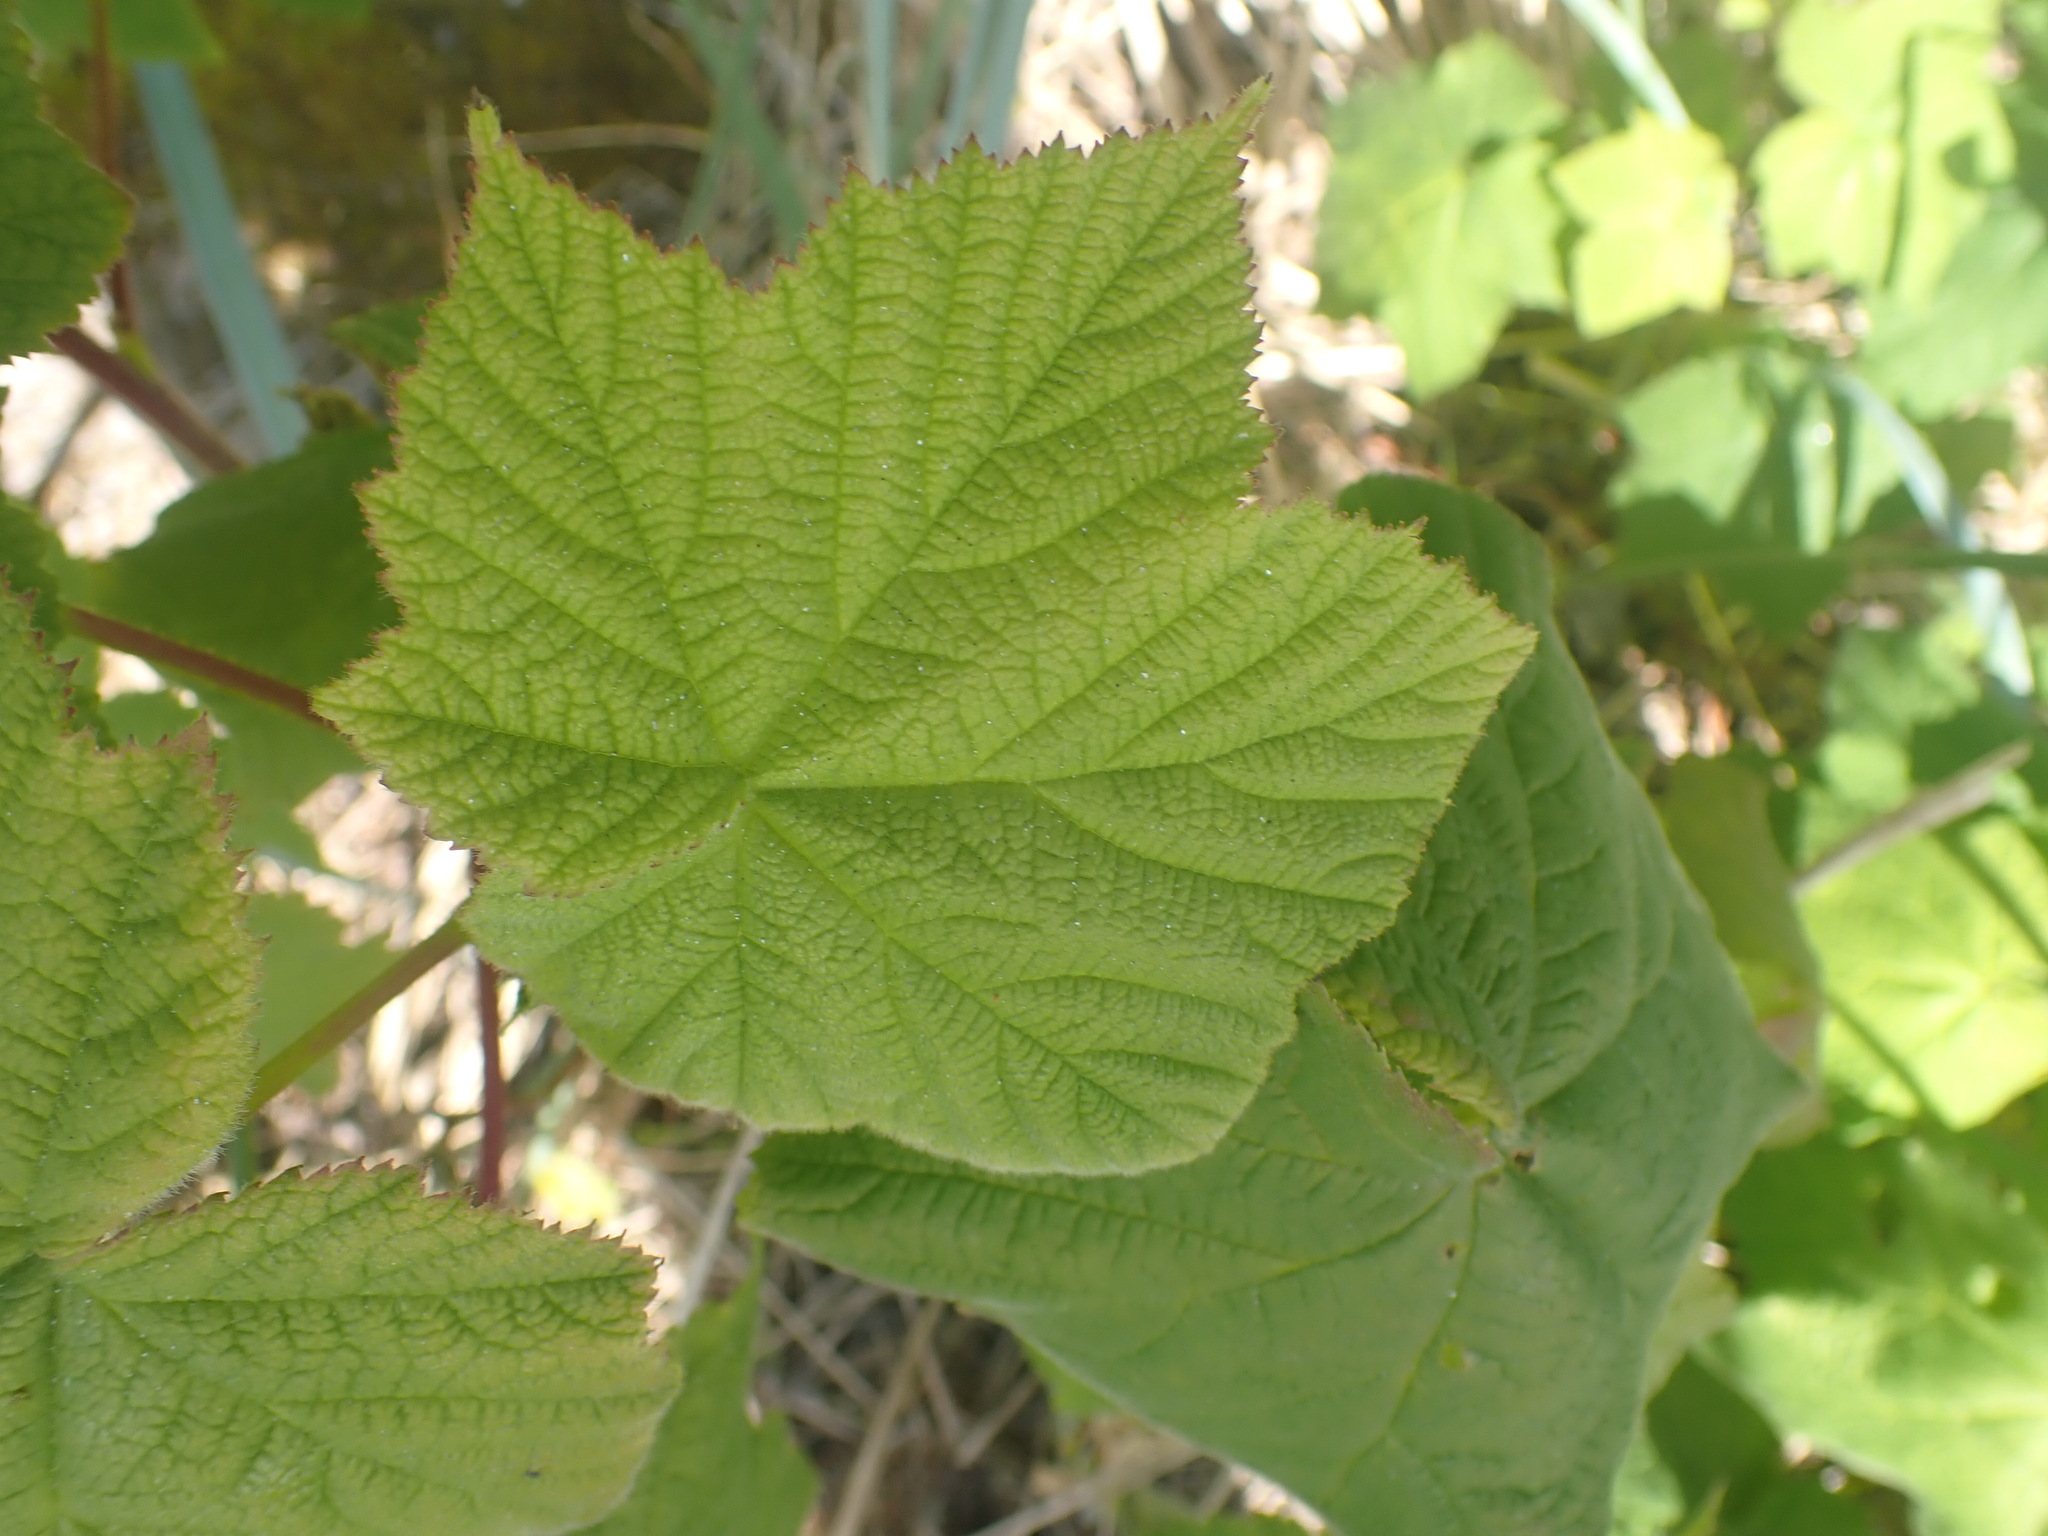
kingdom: Plantae
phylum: Tracheophyta
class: Magnoliopsida
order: Rosales
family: Rosaceae
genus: Rubus
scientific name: Rubus parviflorus
